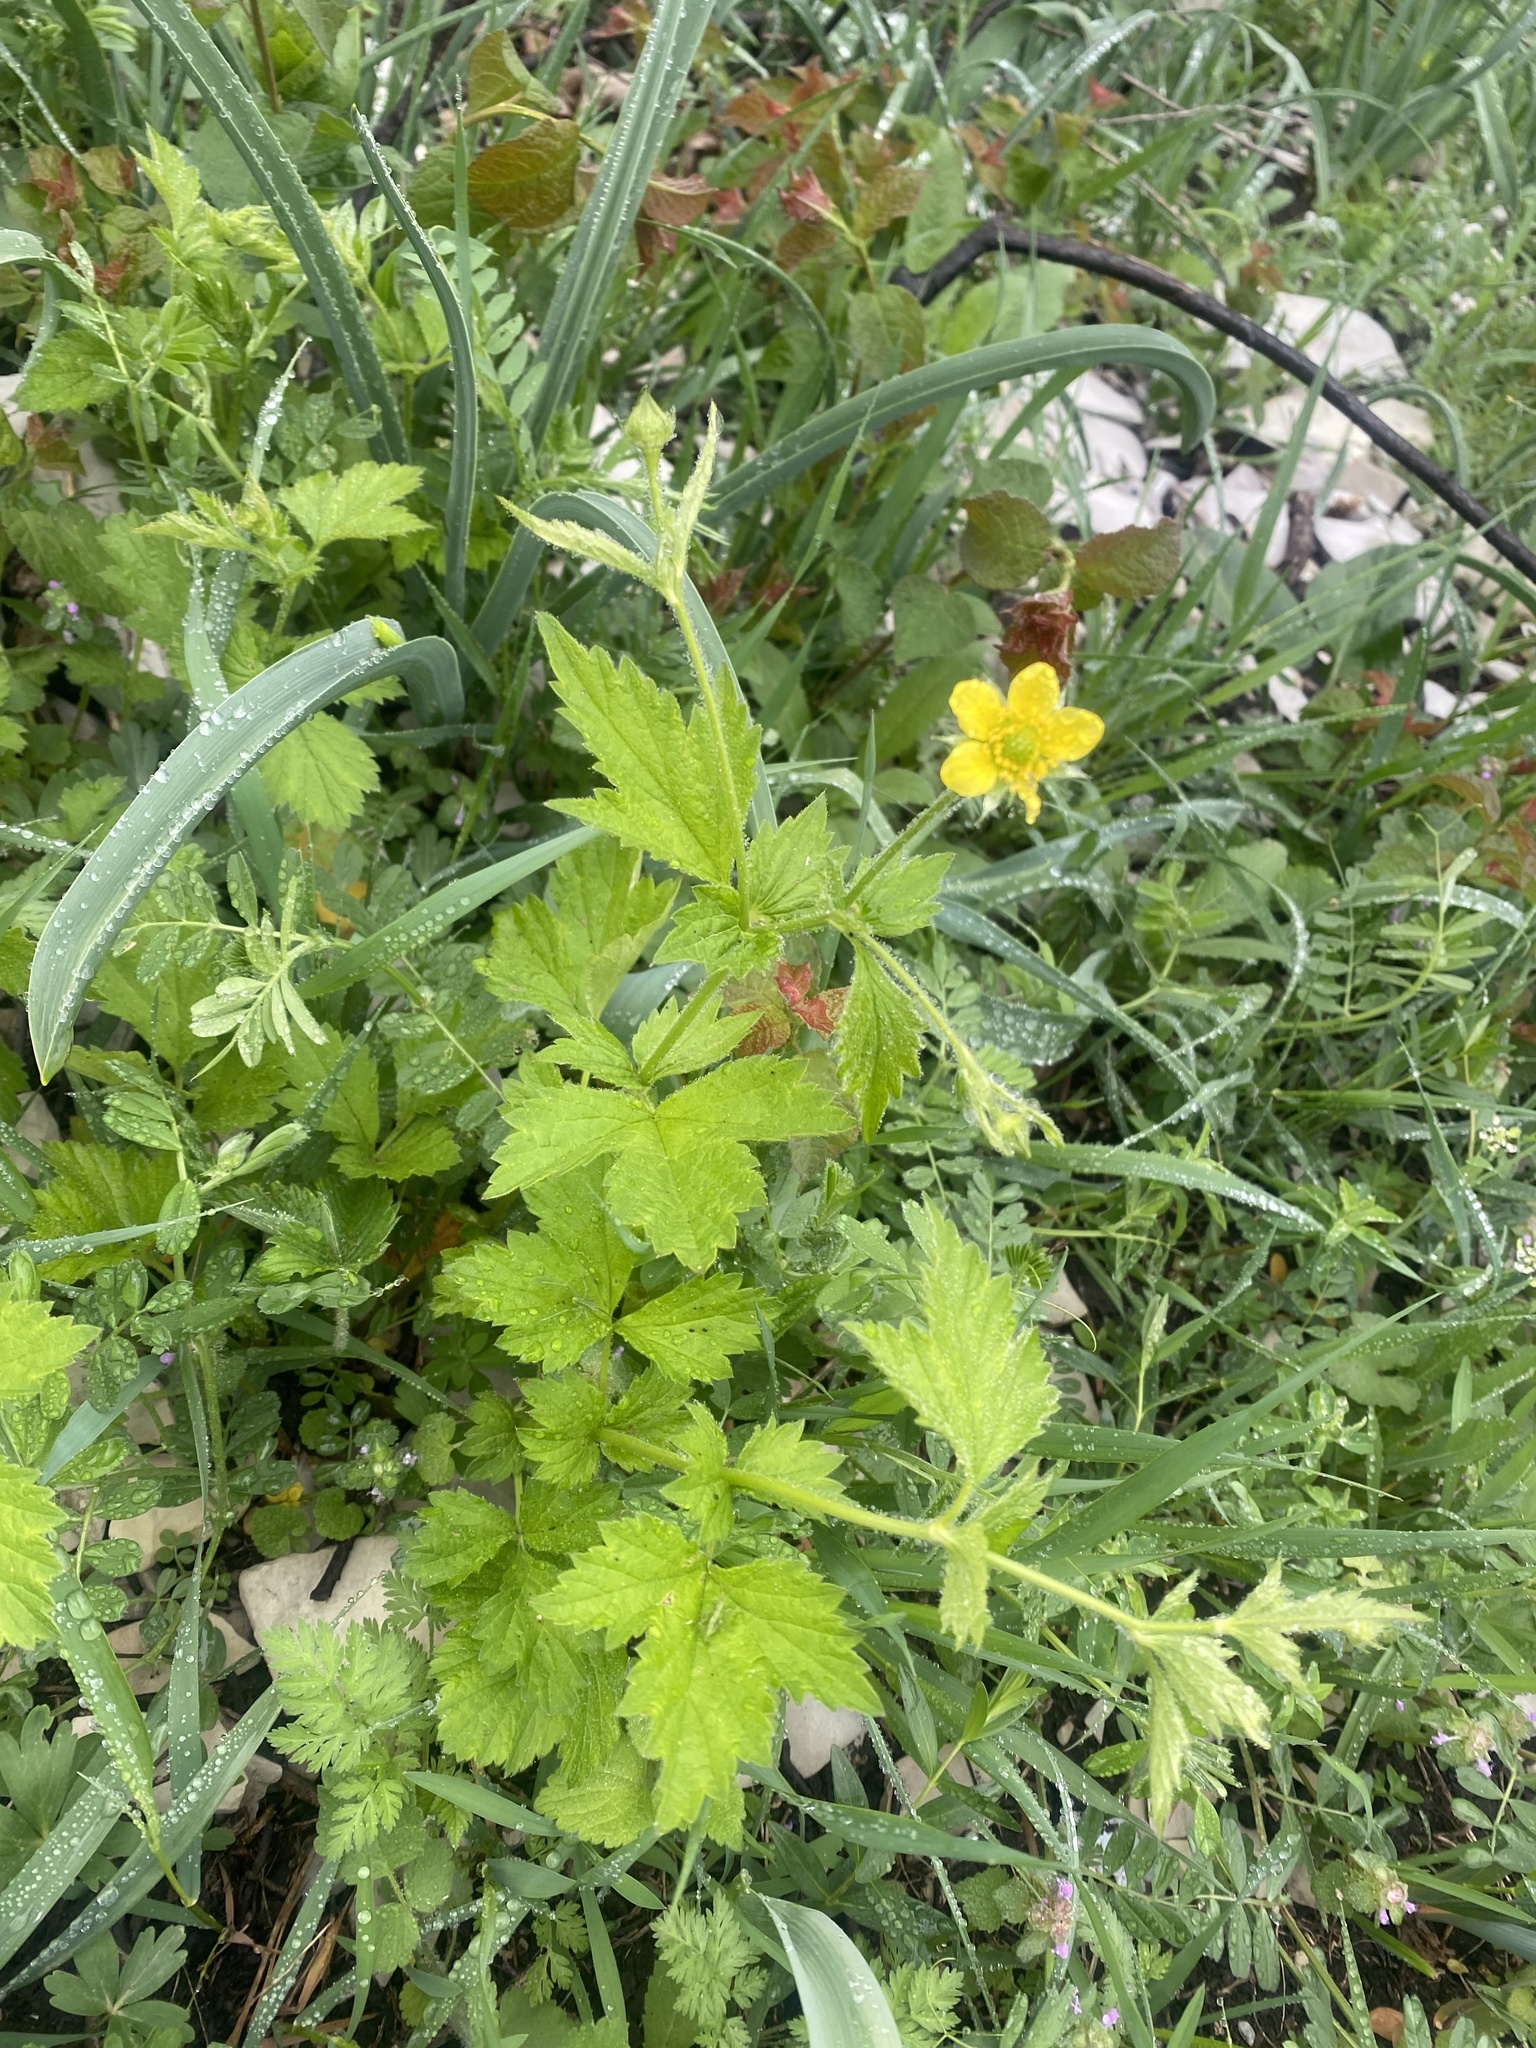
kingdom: Plantae
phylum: Tracheophyta
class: Magnoliopsida
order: Rosales
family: Rosaceae
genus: Geum
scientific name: Geum urbanum
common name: Wood avens
